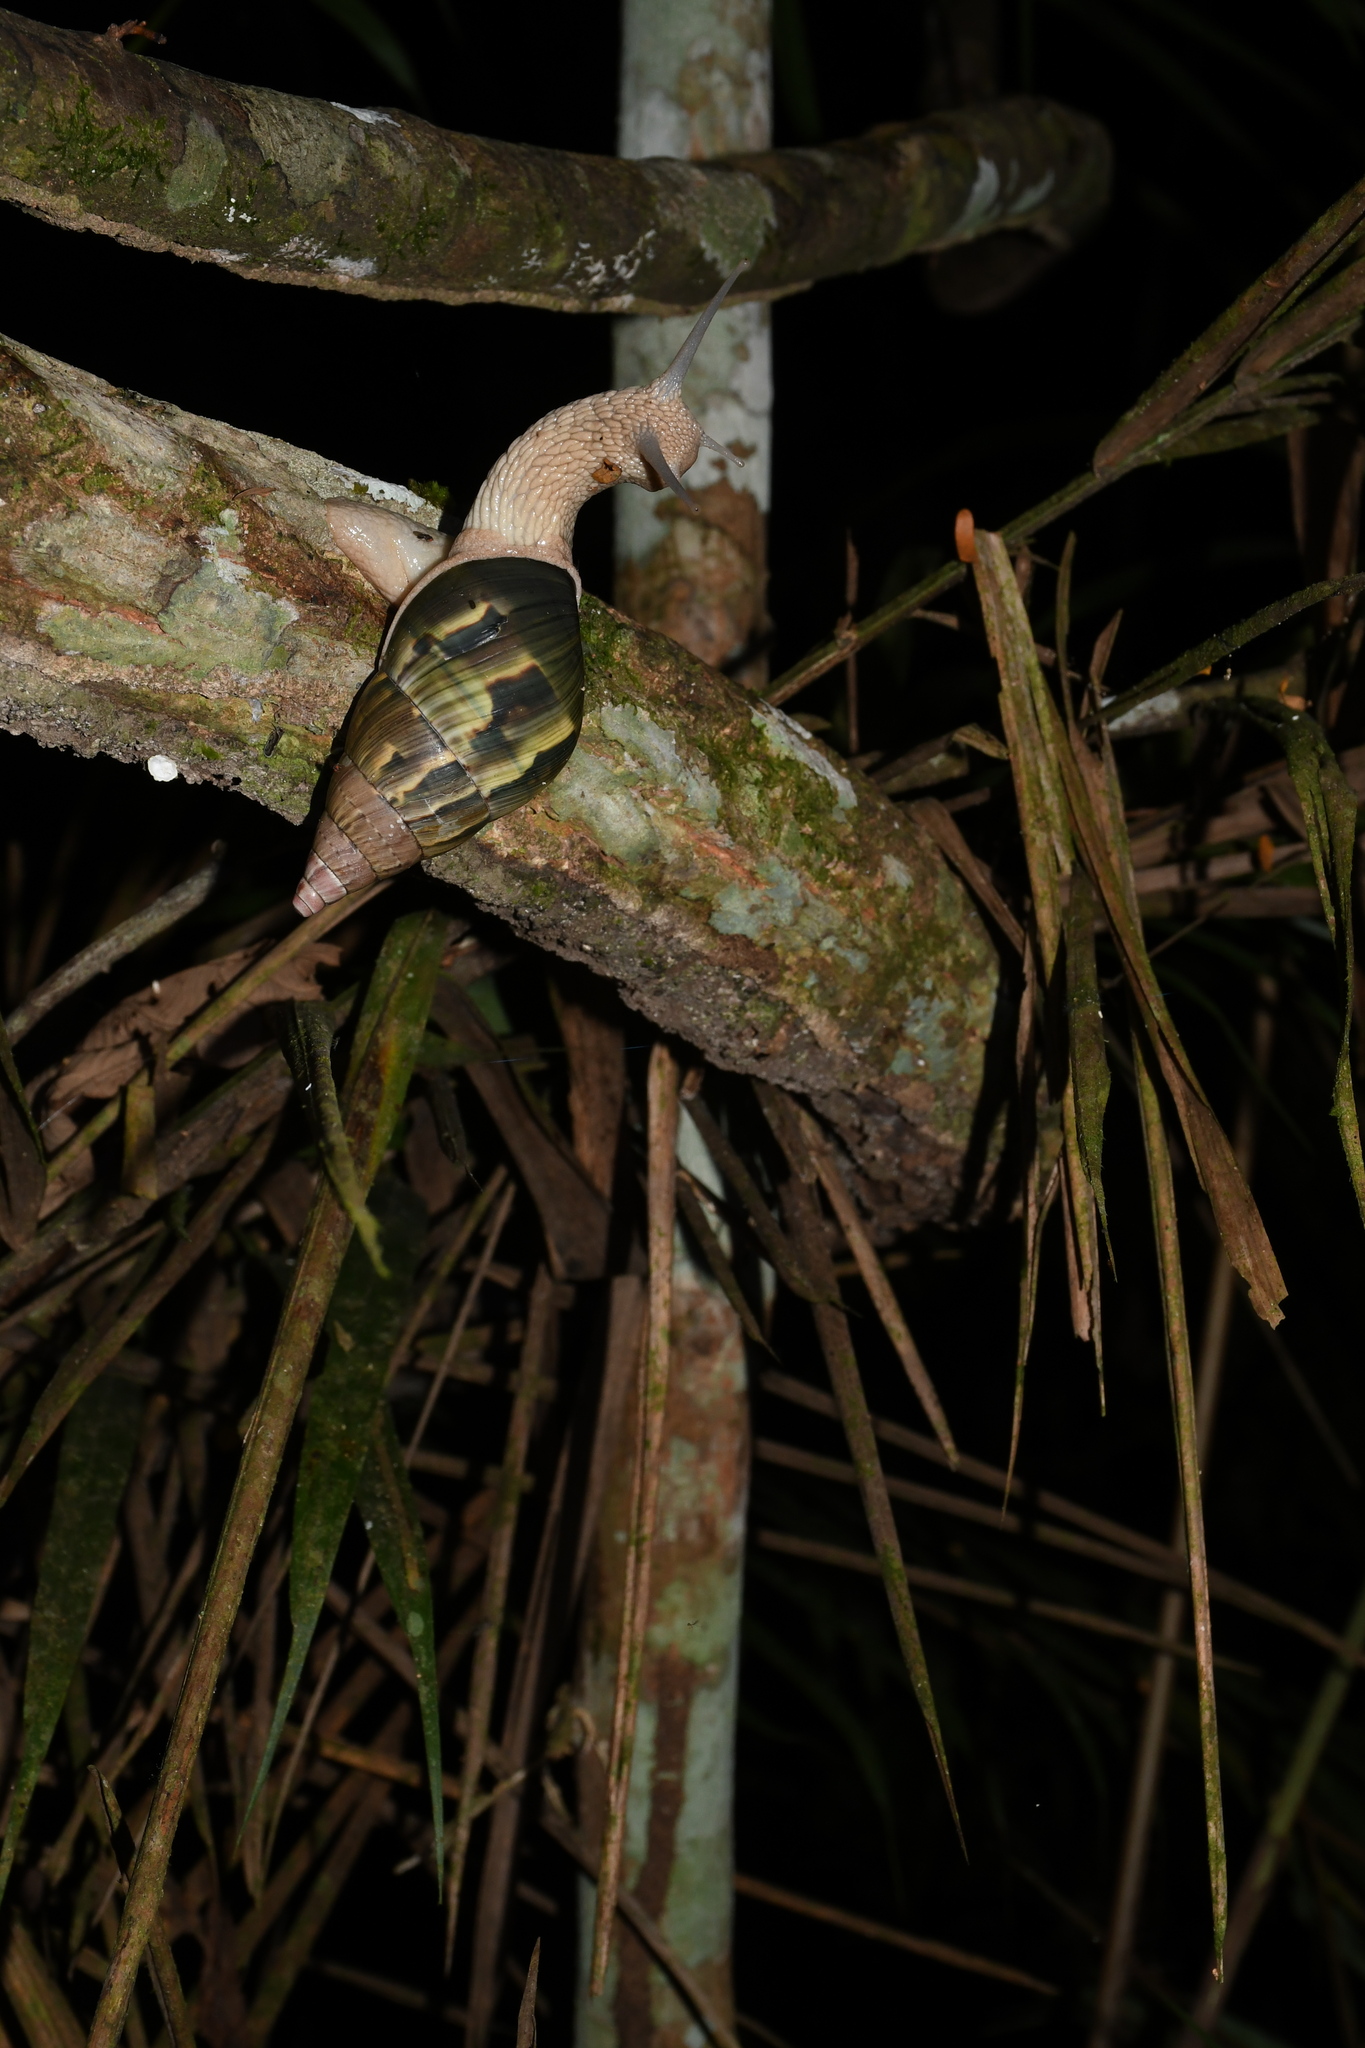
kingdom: Animalia
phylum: Mollusca
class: Gastropoda
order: Stylommatophora
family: Orthalicidae
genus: Corona
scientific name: Corona incisa
